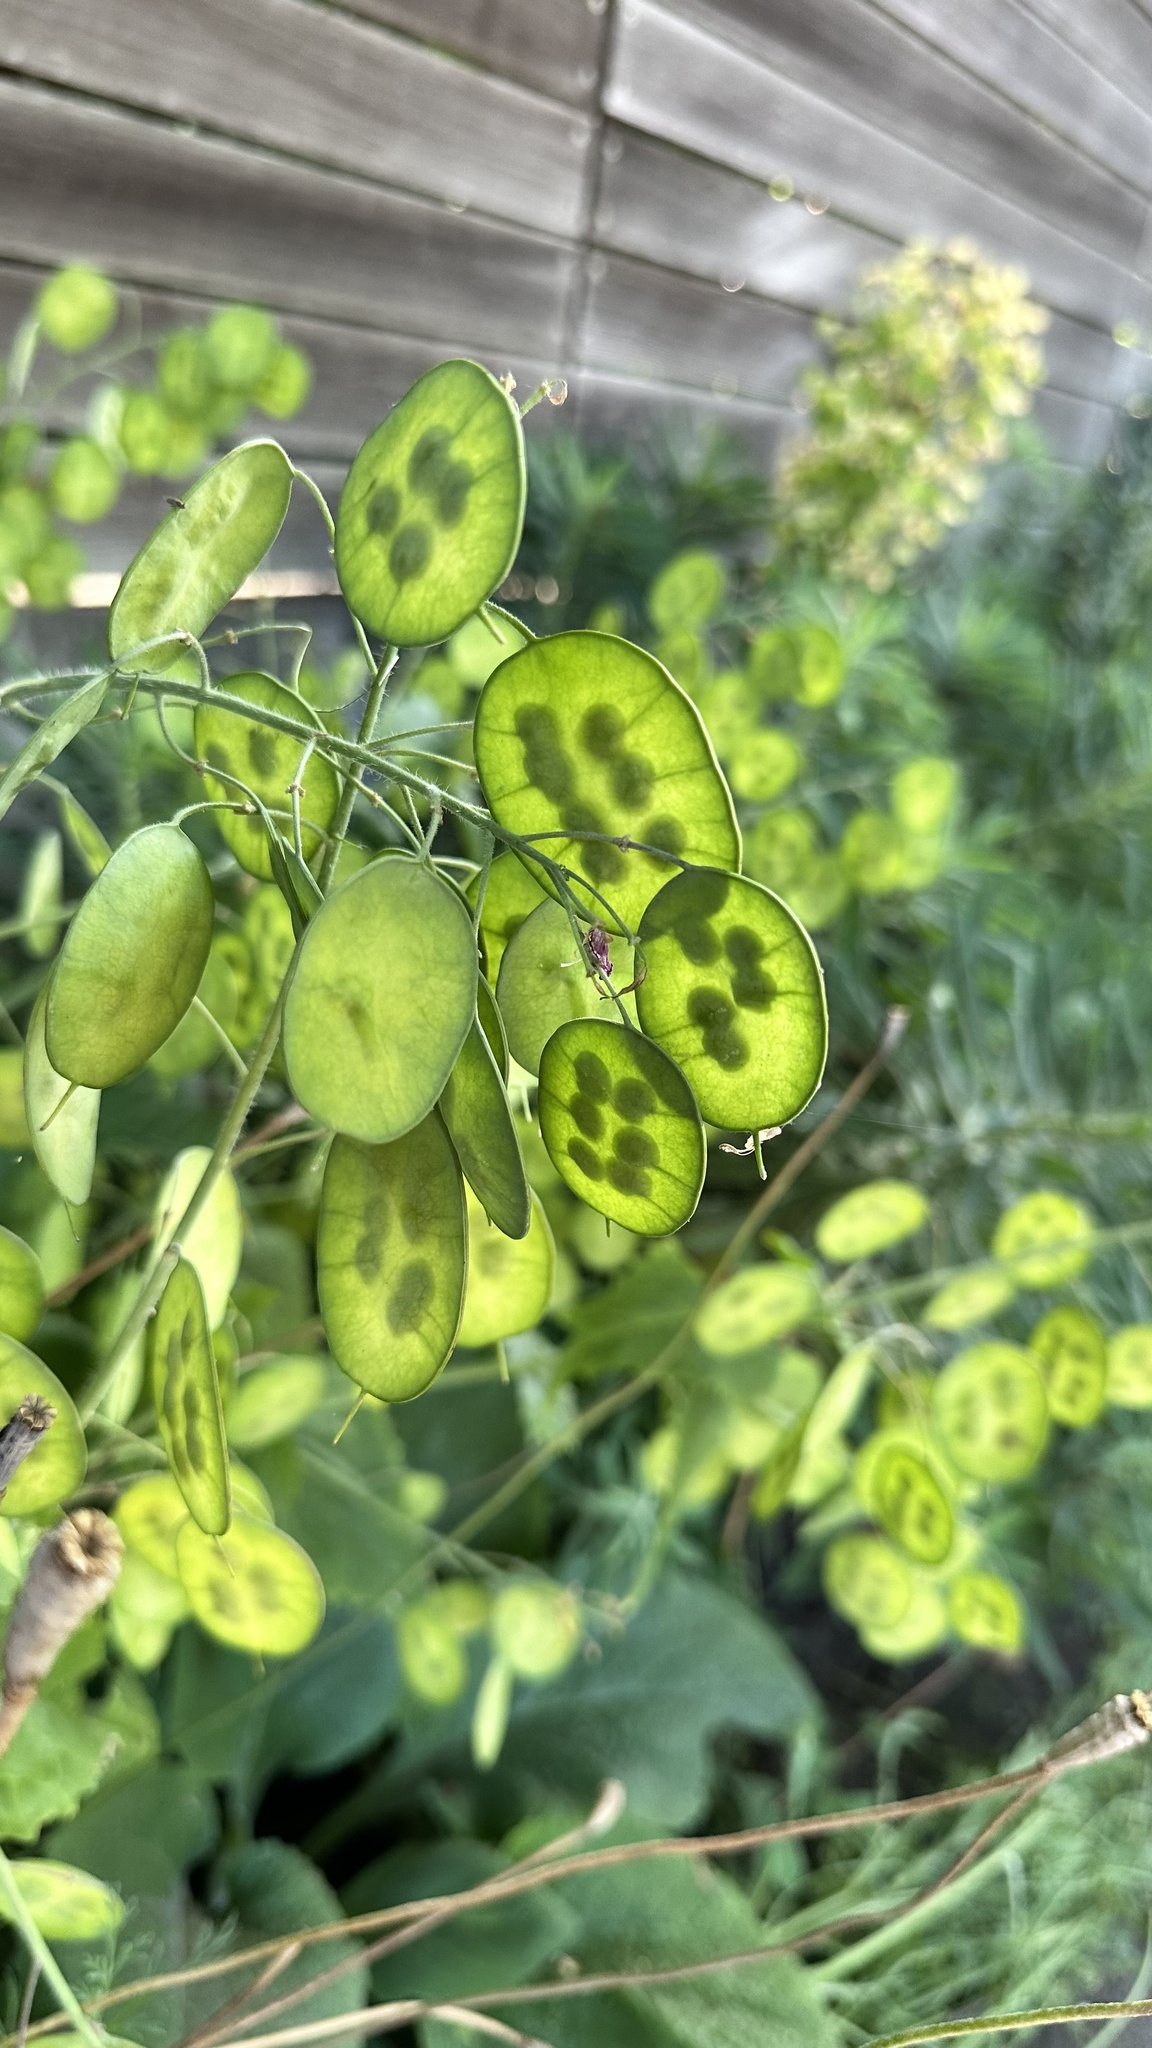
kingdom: Plantae
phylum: Tracheophyta
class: Magnoliopsida
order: Brassicales
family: Brassicaceae
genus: Lunaria
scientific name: Lunaria annua
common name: Honesty
